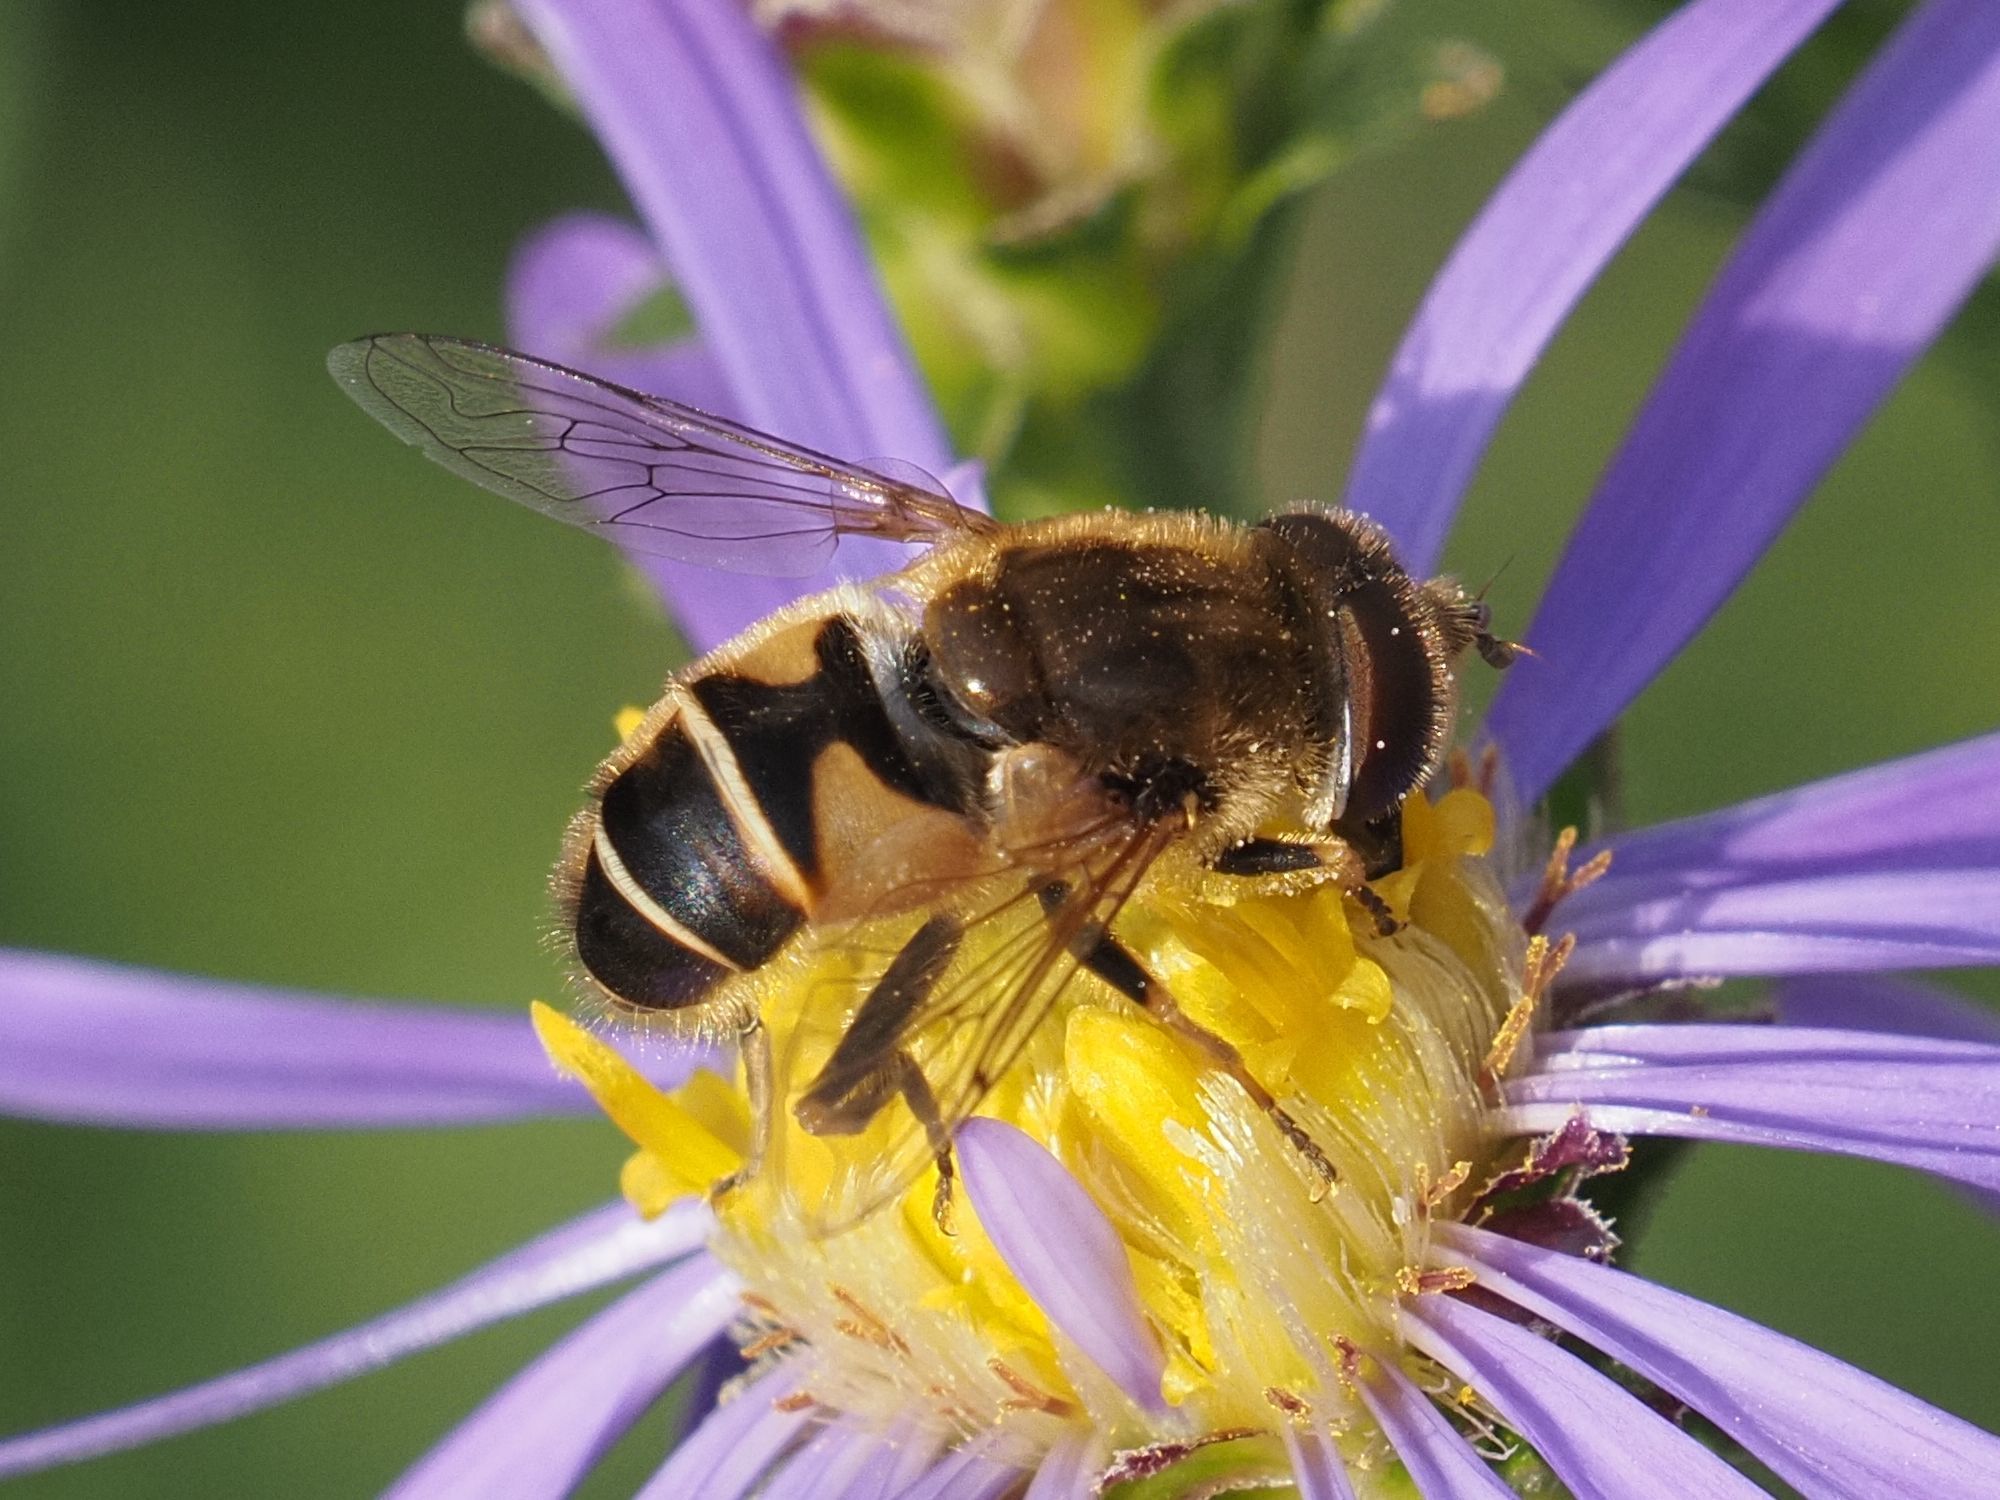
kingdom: Animalia
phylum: Arthropoda
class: Insecta
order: Diptera
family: Syrphidae
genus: Eristalis
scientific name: Eristalis nemorum
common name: Orange-spined drone fly
